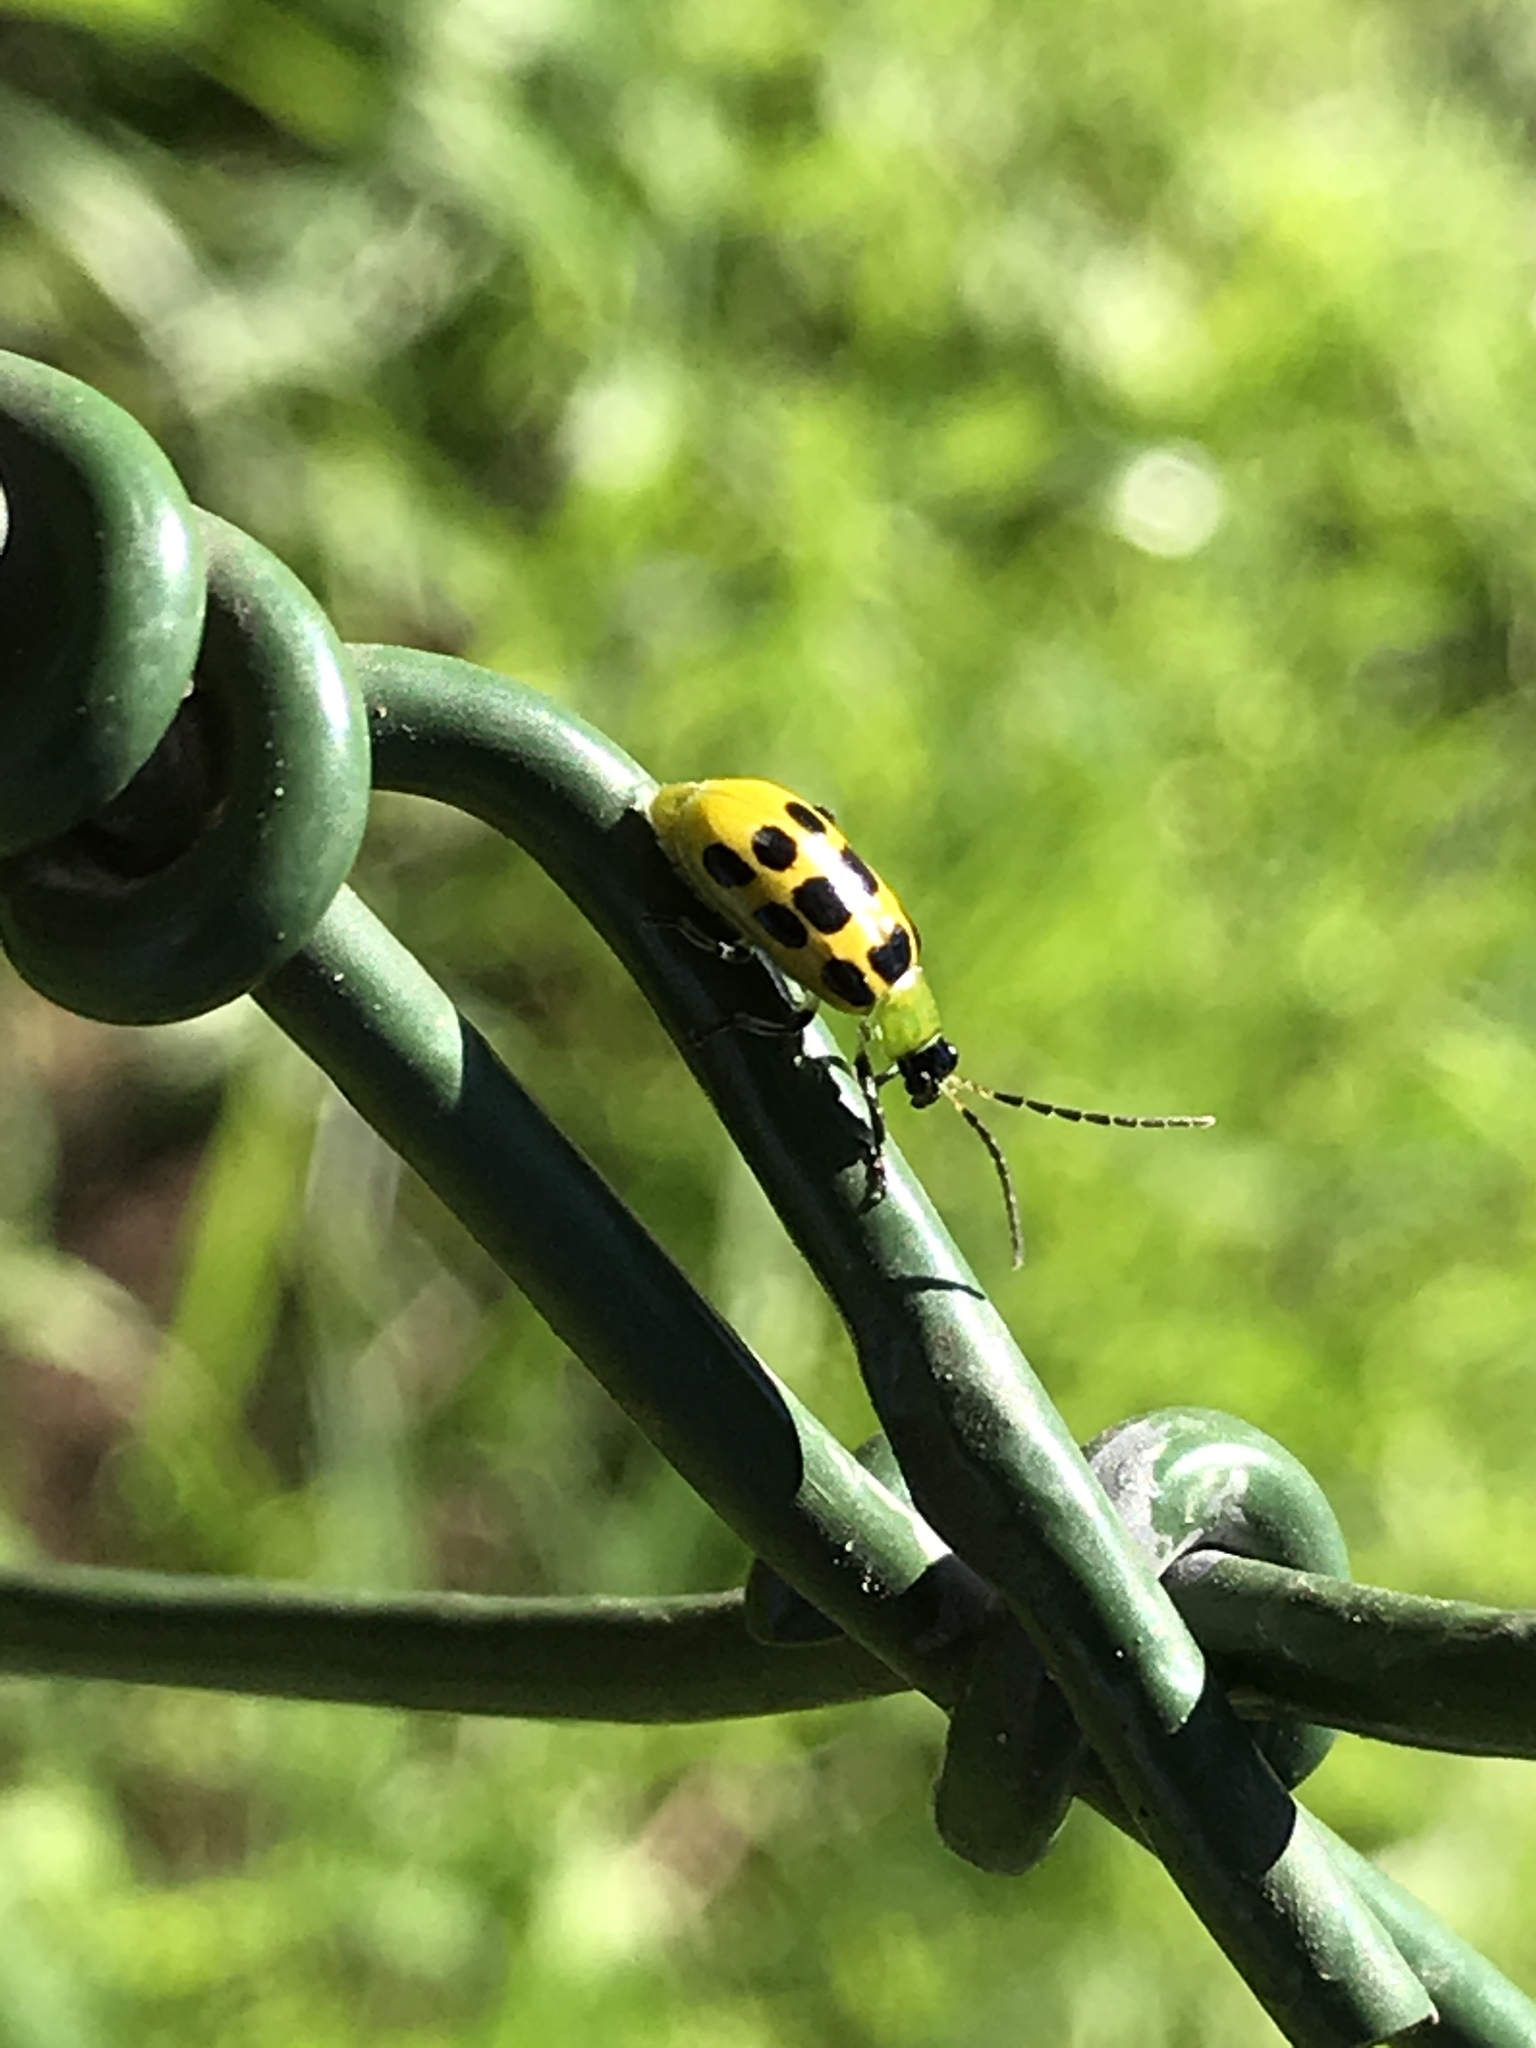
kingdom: Animalia
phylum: Arthropoda
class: Insecta
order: Coleoptera
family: Chrysomelidae
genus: Diabrotica
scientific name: Diabrotica undecimpunctata
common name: Spotted cucumber beetle
